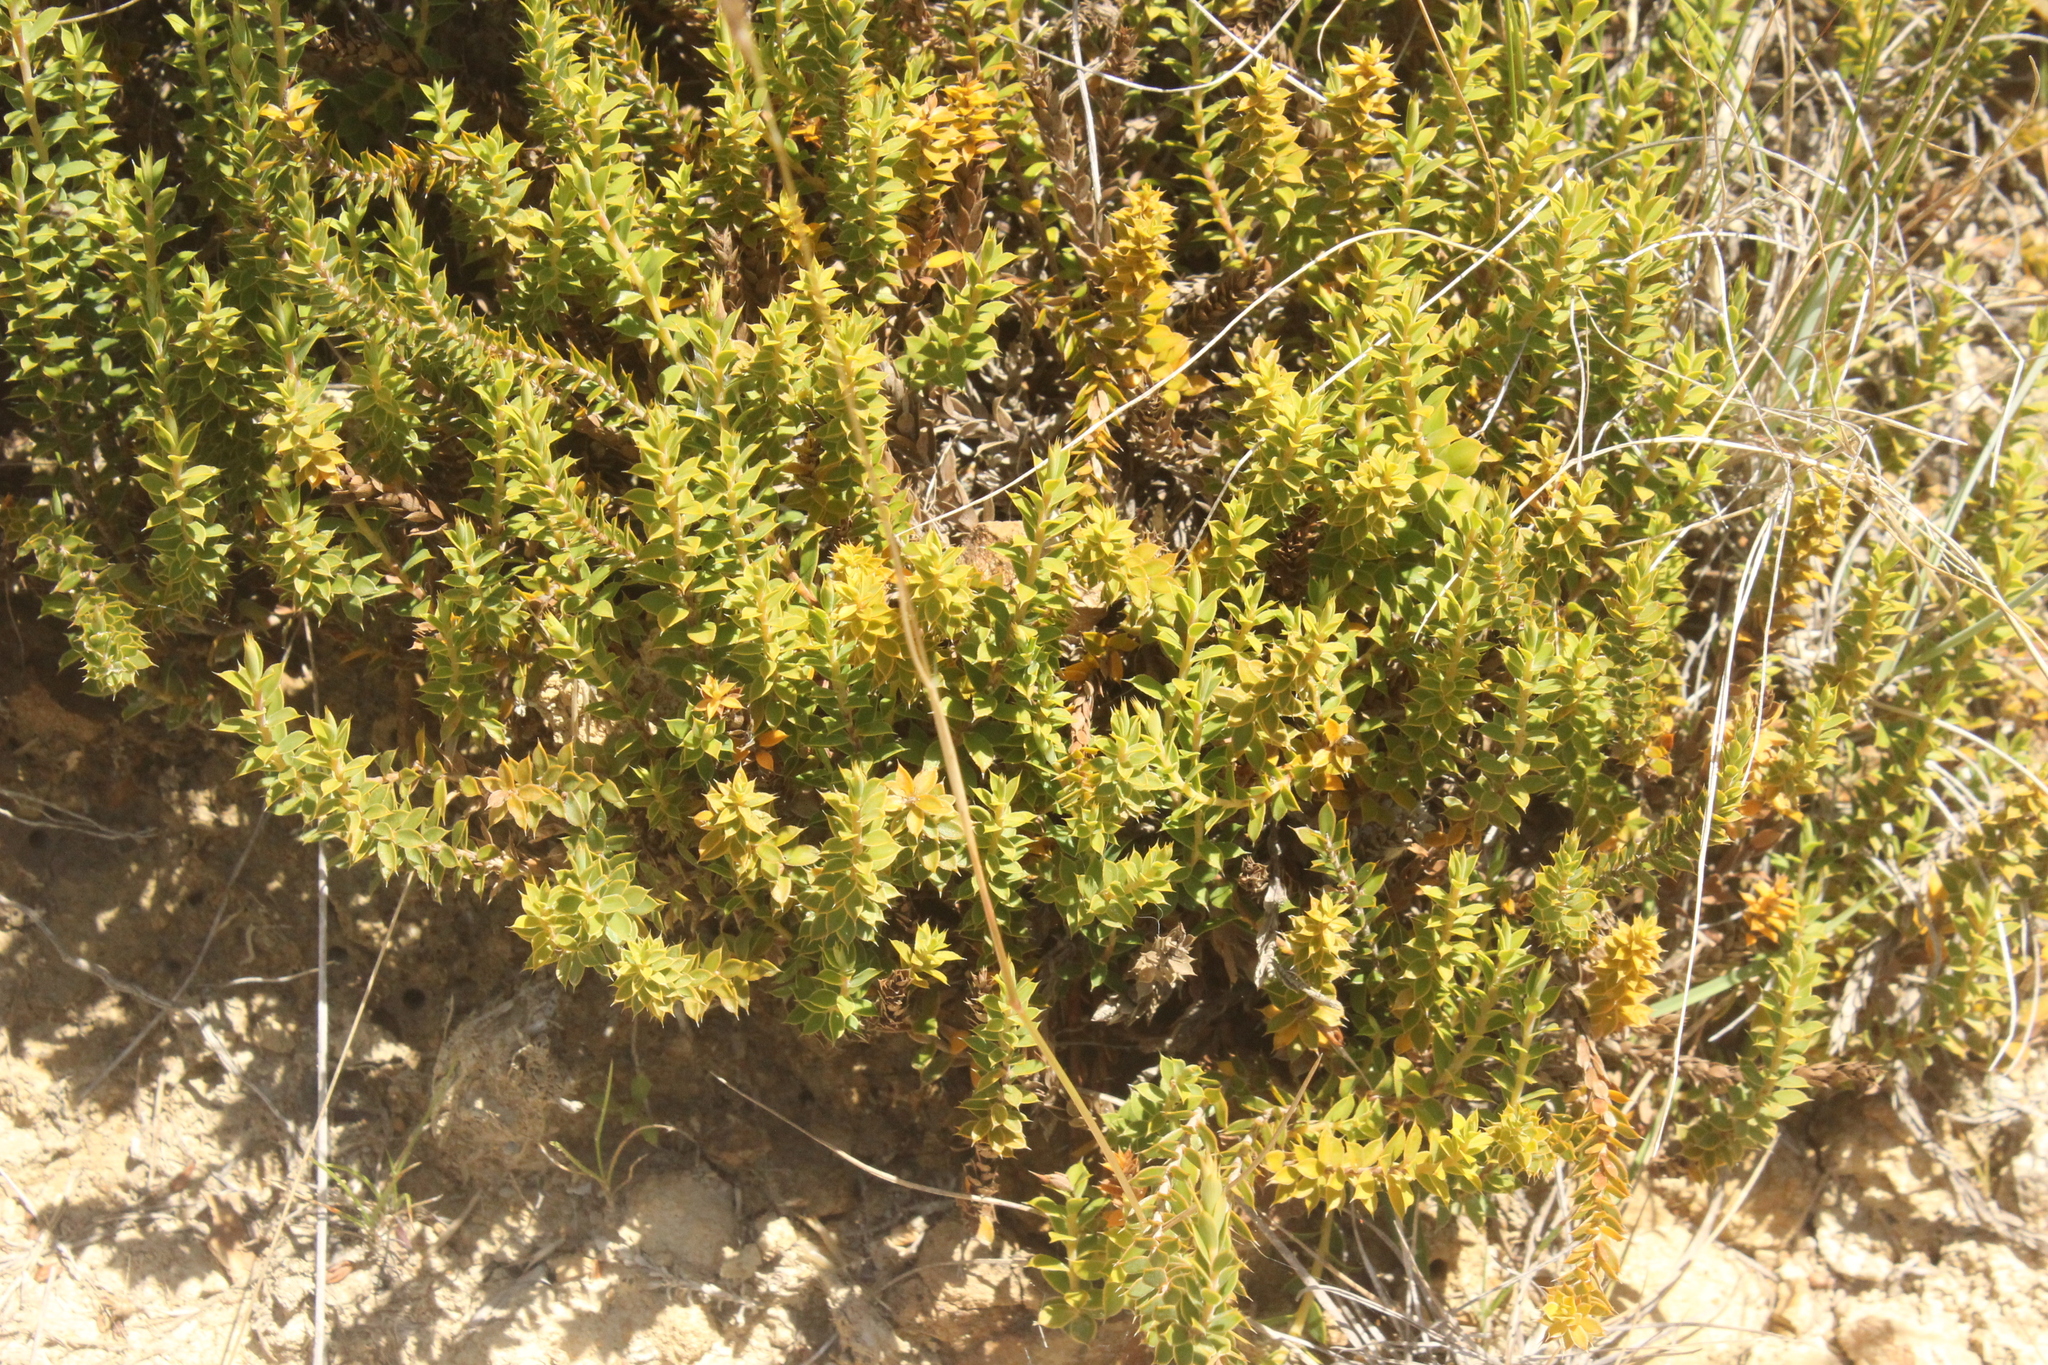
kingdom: Plantae
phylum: Tracheophyta
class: Magnoliopsida
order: Ericales
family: Ericaceae
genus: Styphelia
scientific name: Styphelia nesophila
